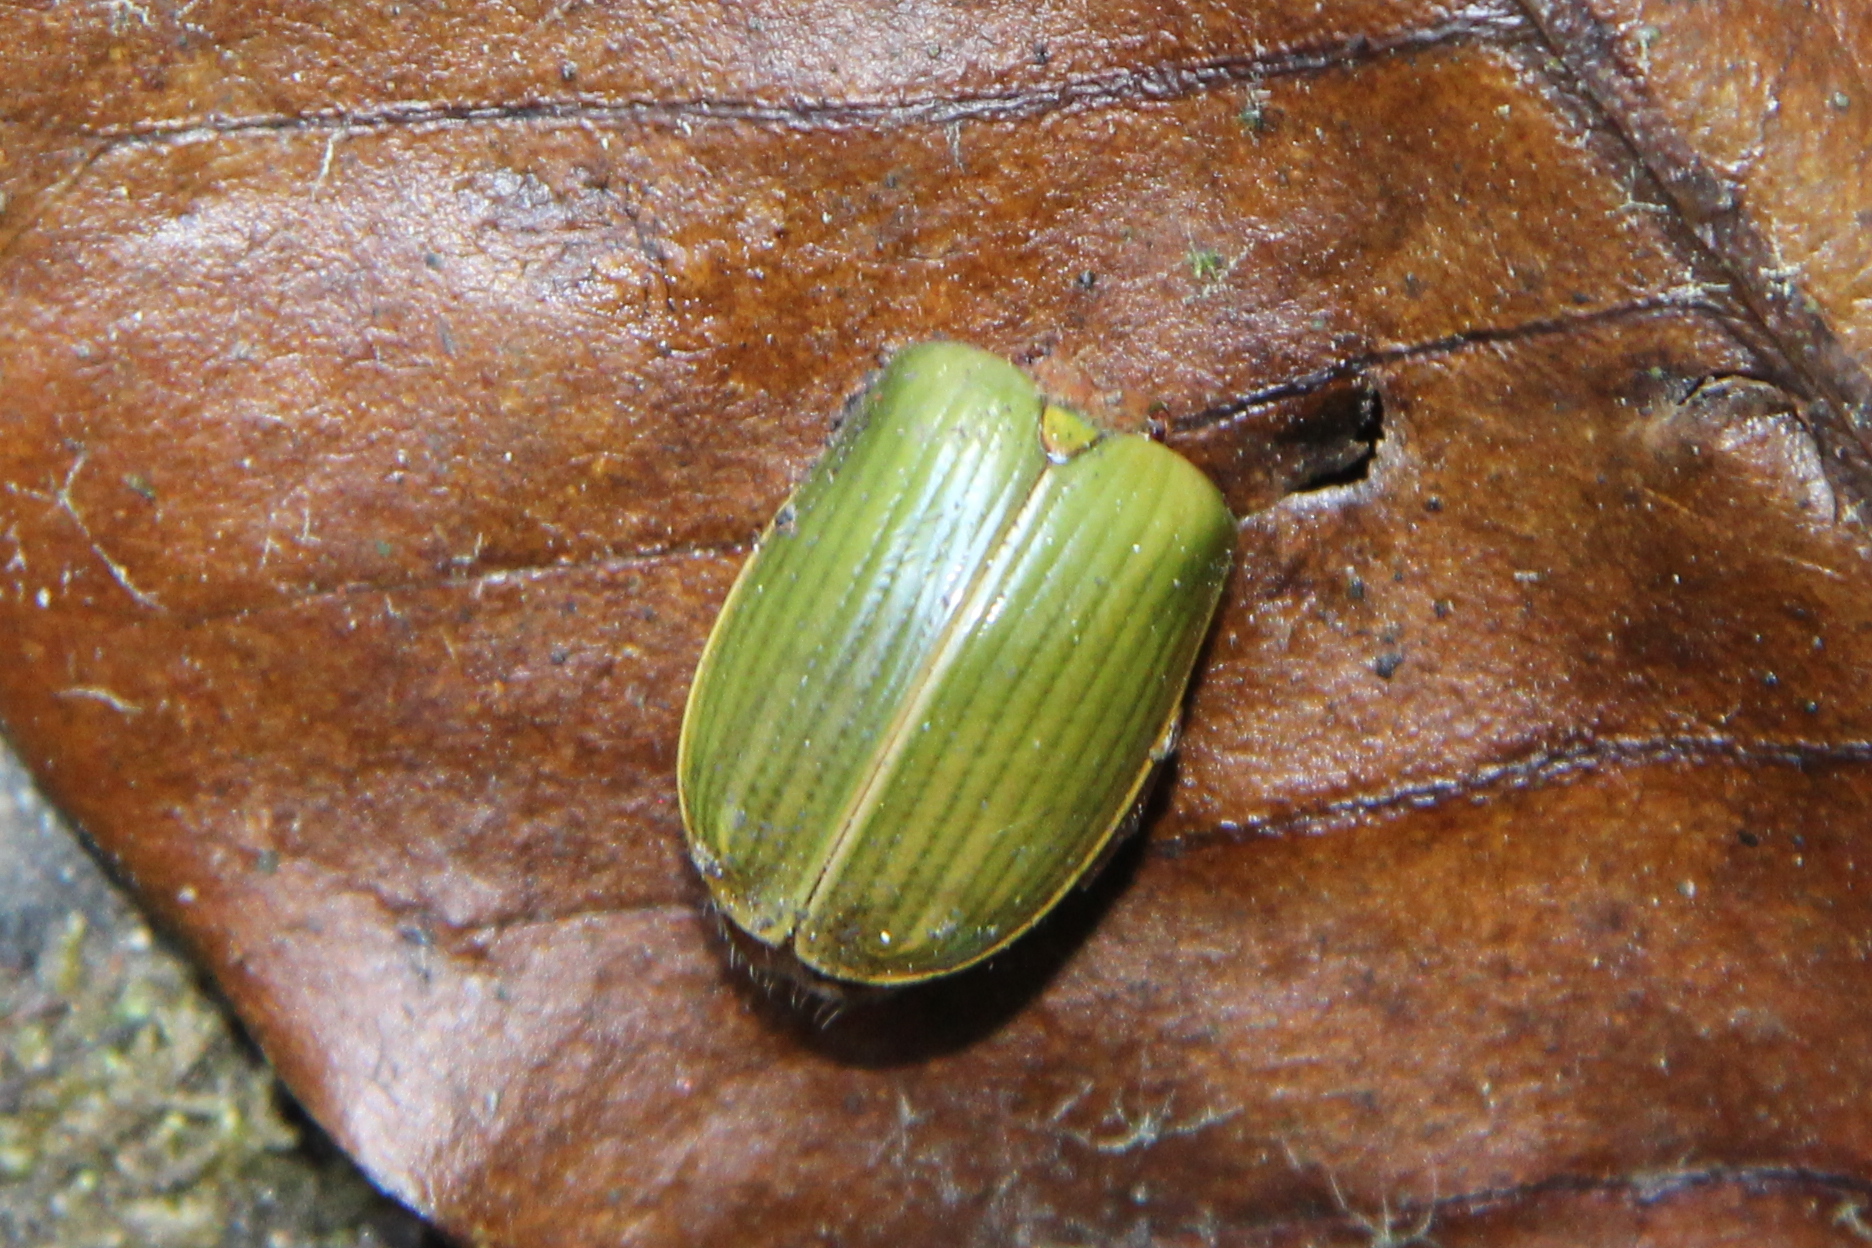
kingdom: Animalia
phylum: Arthropoda
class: Insecta
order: Coleoptera
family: Scarabaeidae
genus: Stethaspis
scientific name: Stethaspis longicornis
